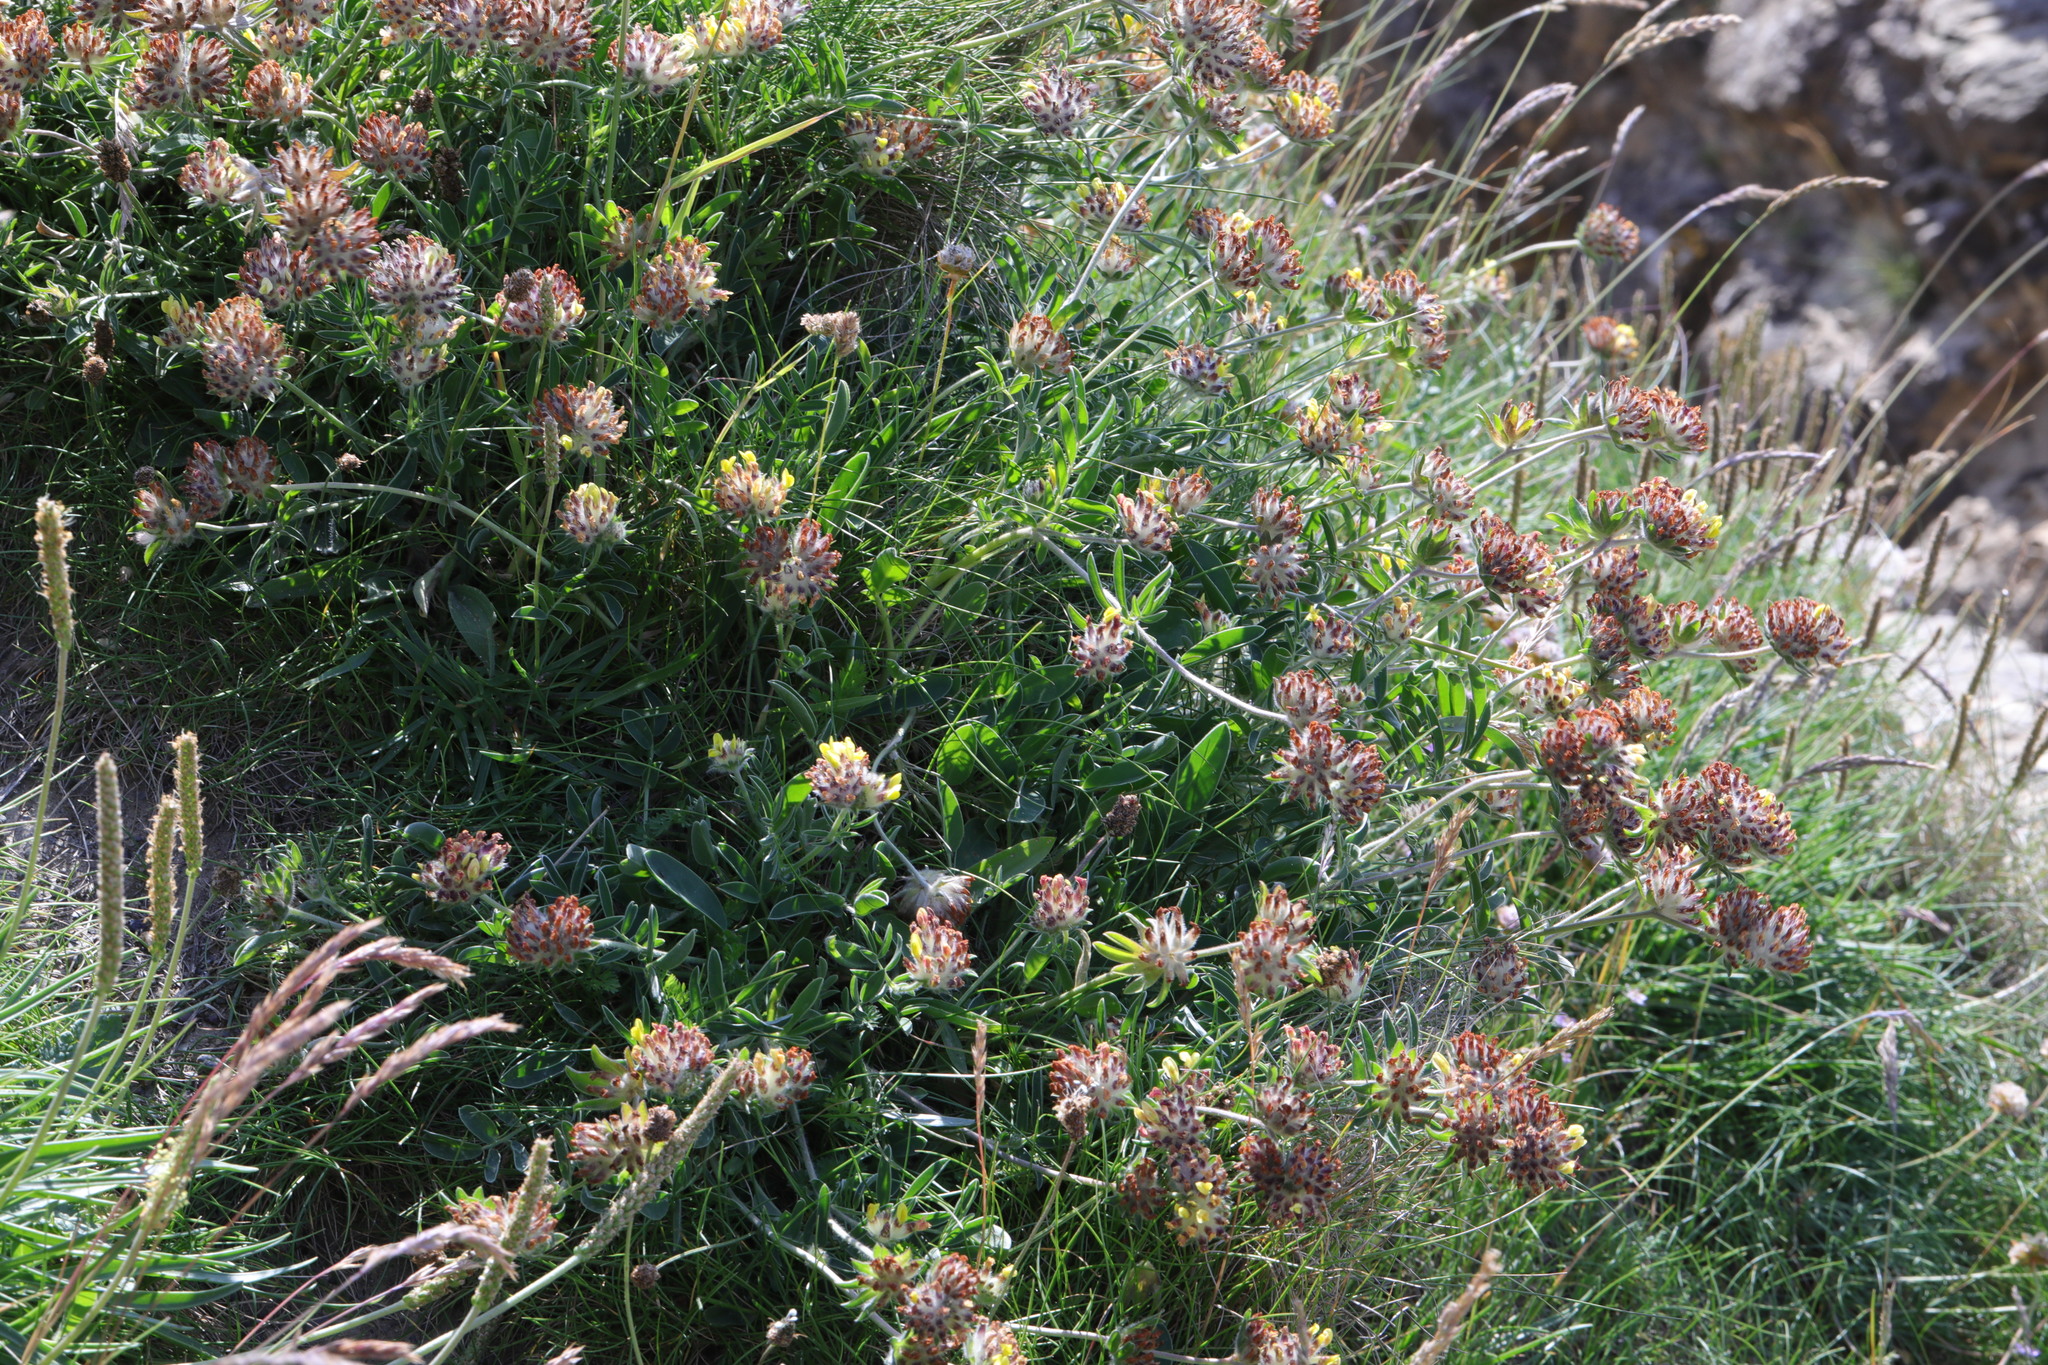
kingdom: Plantae
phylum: Tracheophyta
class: Magnoliopsida
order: Fabales
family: Fabaceae
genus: Anthyllis
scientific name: Anthyllis vulneraria
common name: Kidney vetch
